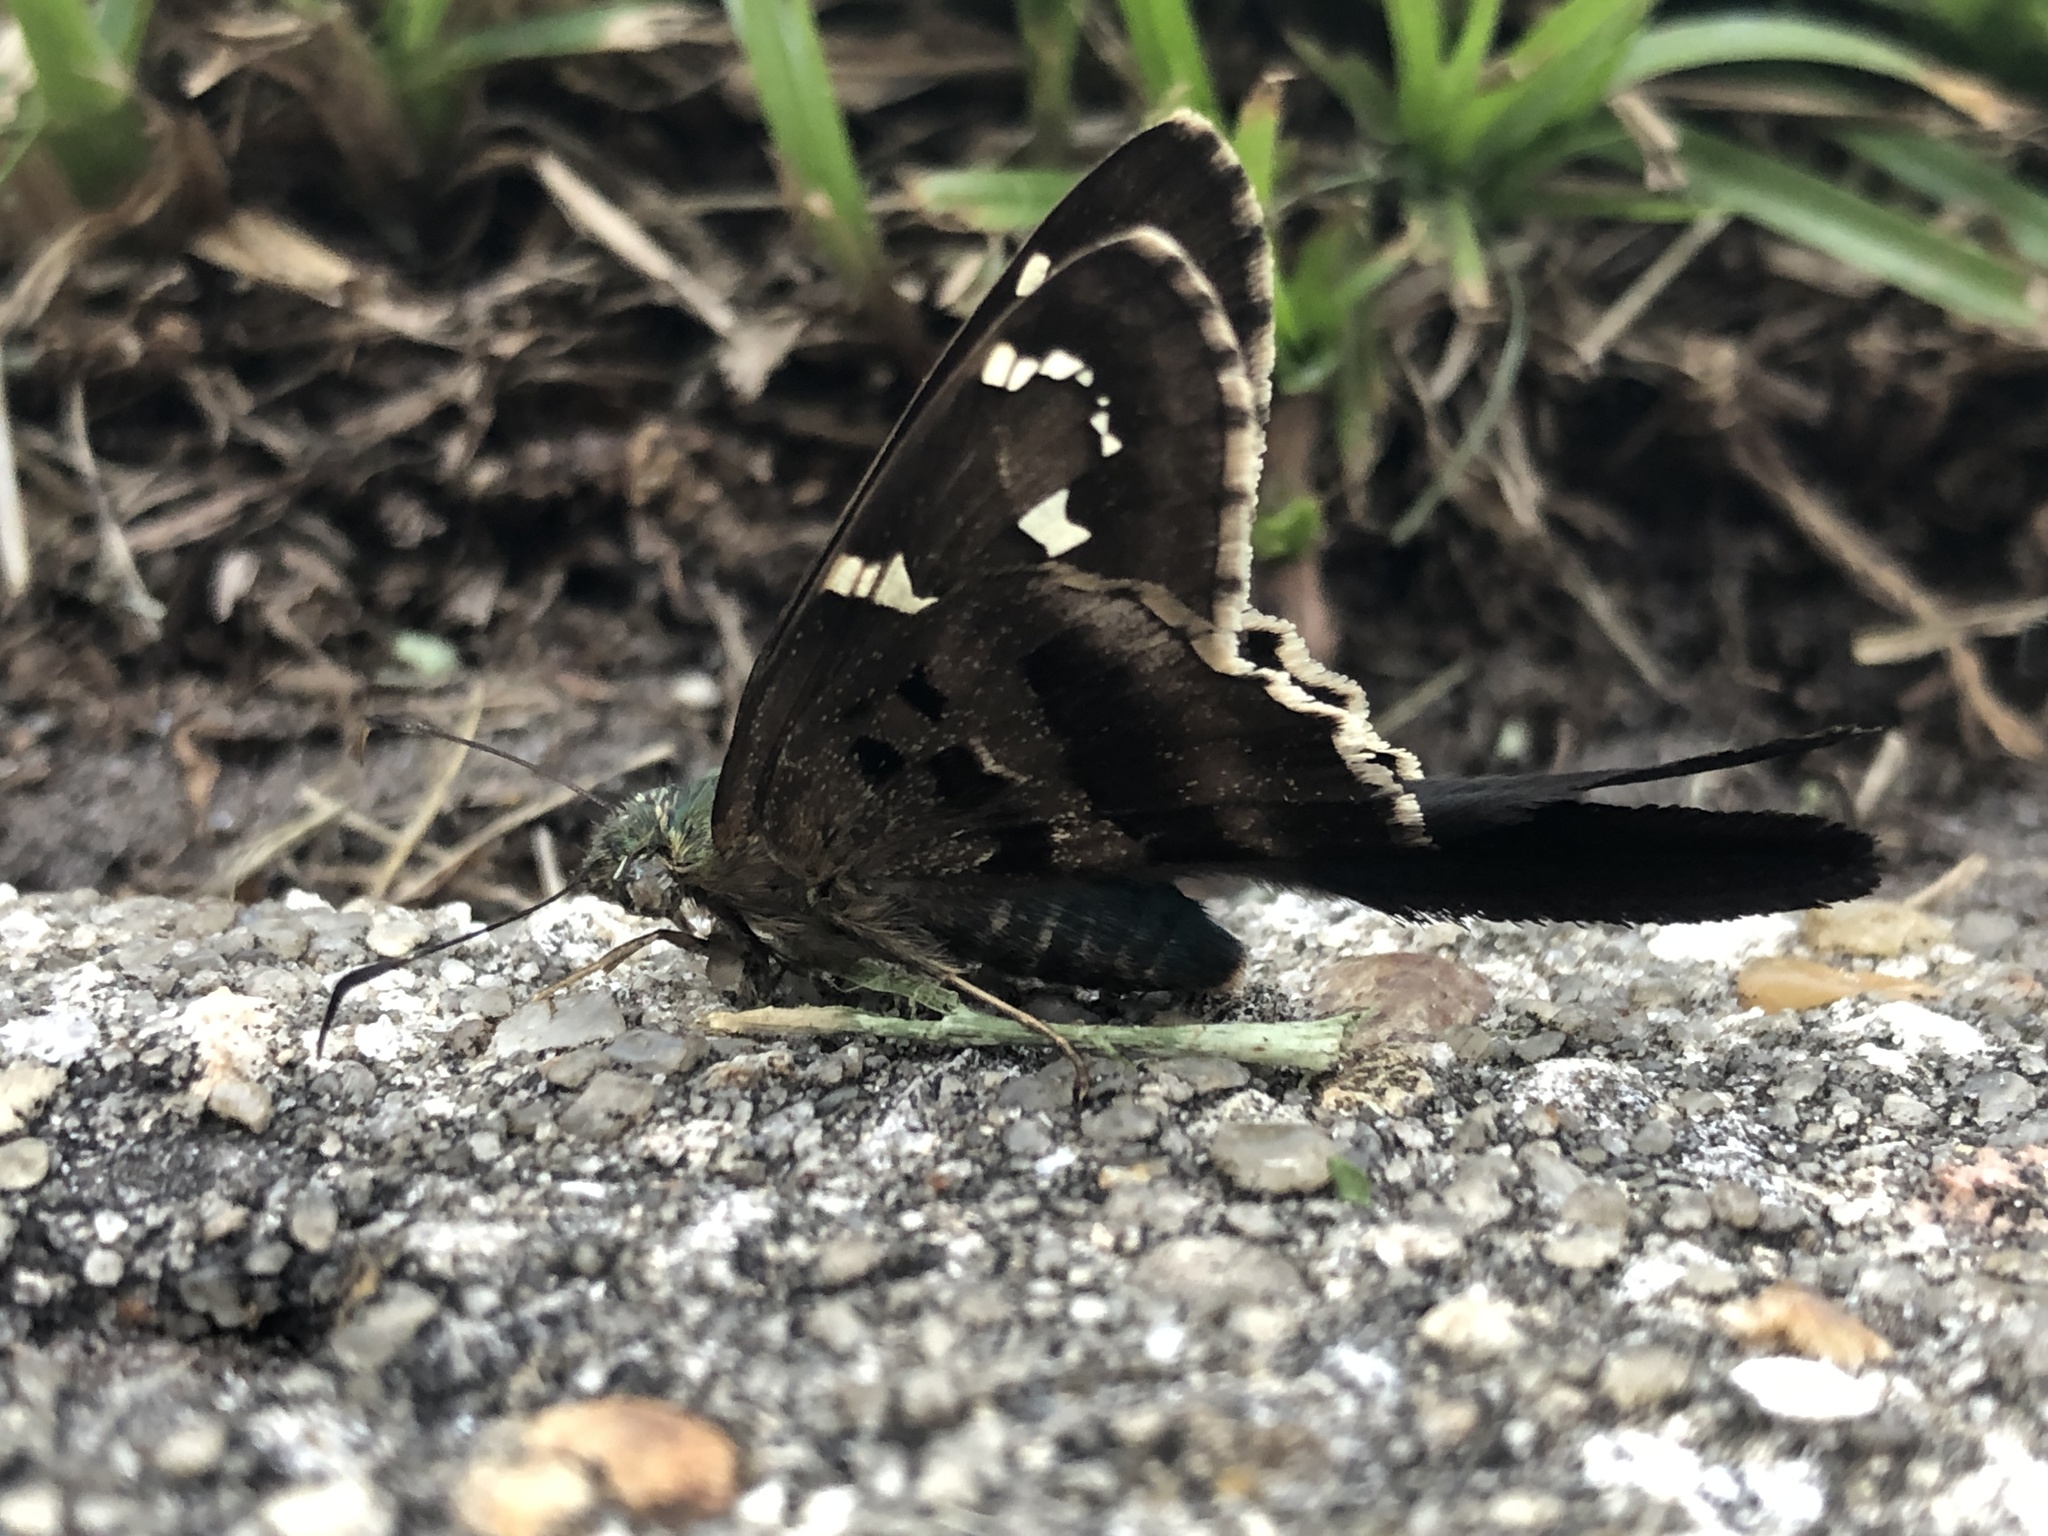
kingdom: Animalia
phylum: Arthropoda
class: Insecta
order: Lepidoptera
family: Hesperiidae
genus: Urbanus
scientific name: Urbanus proteus
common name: Long-tailed skipper
